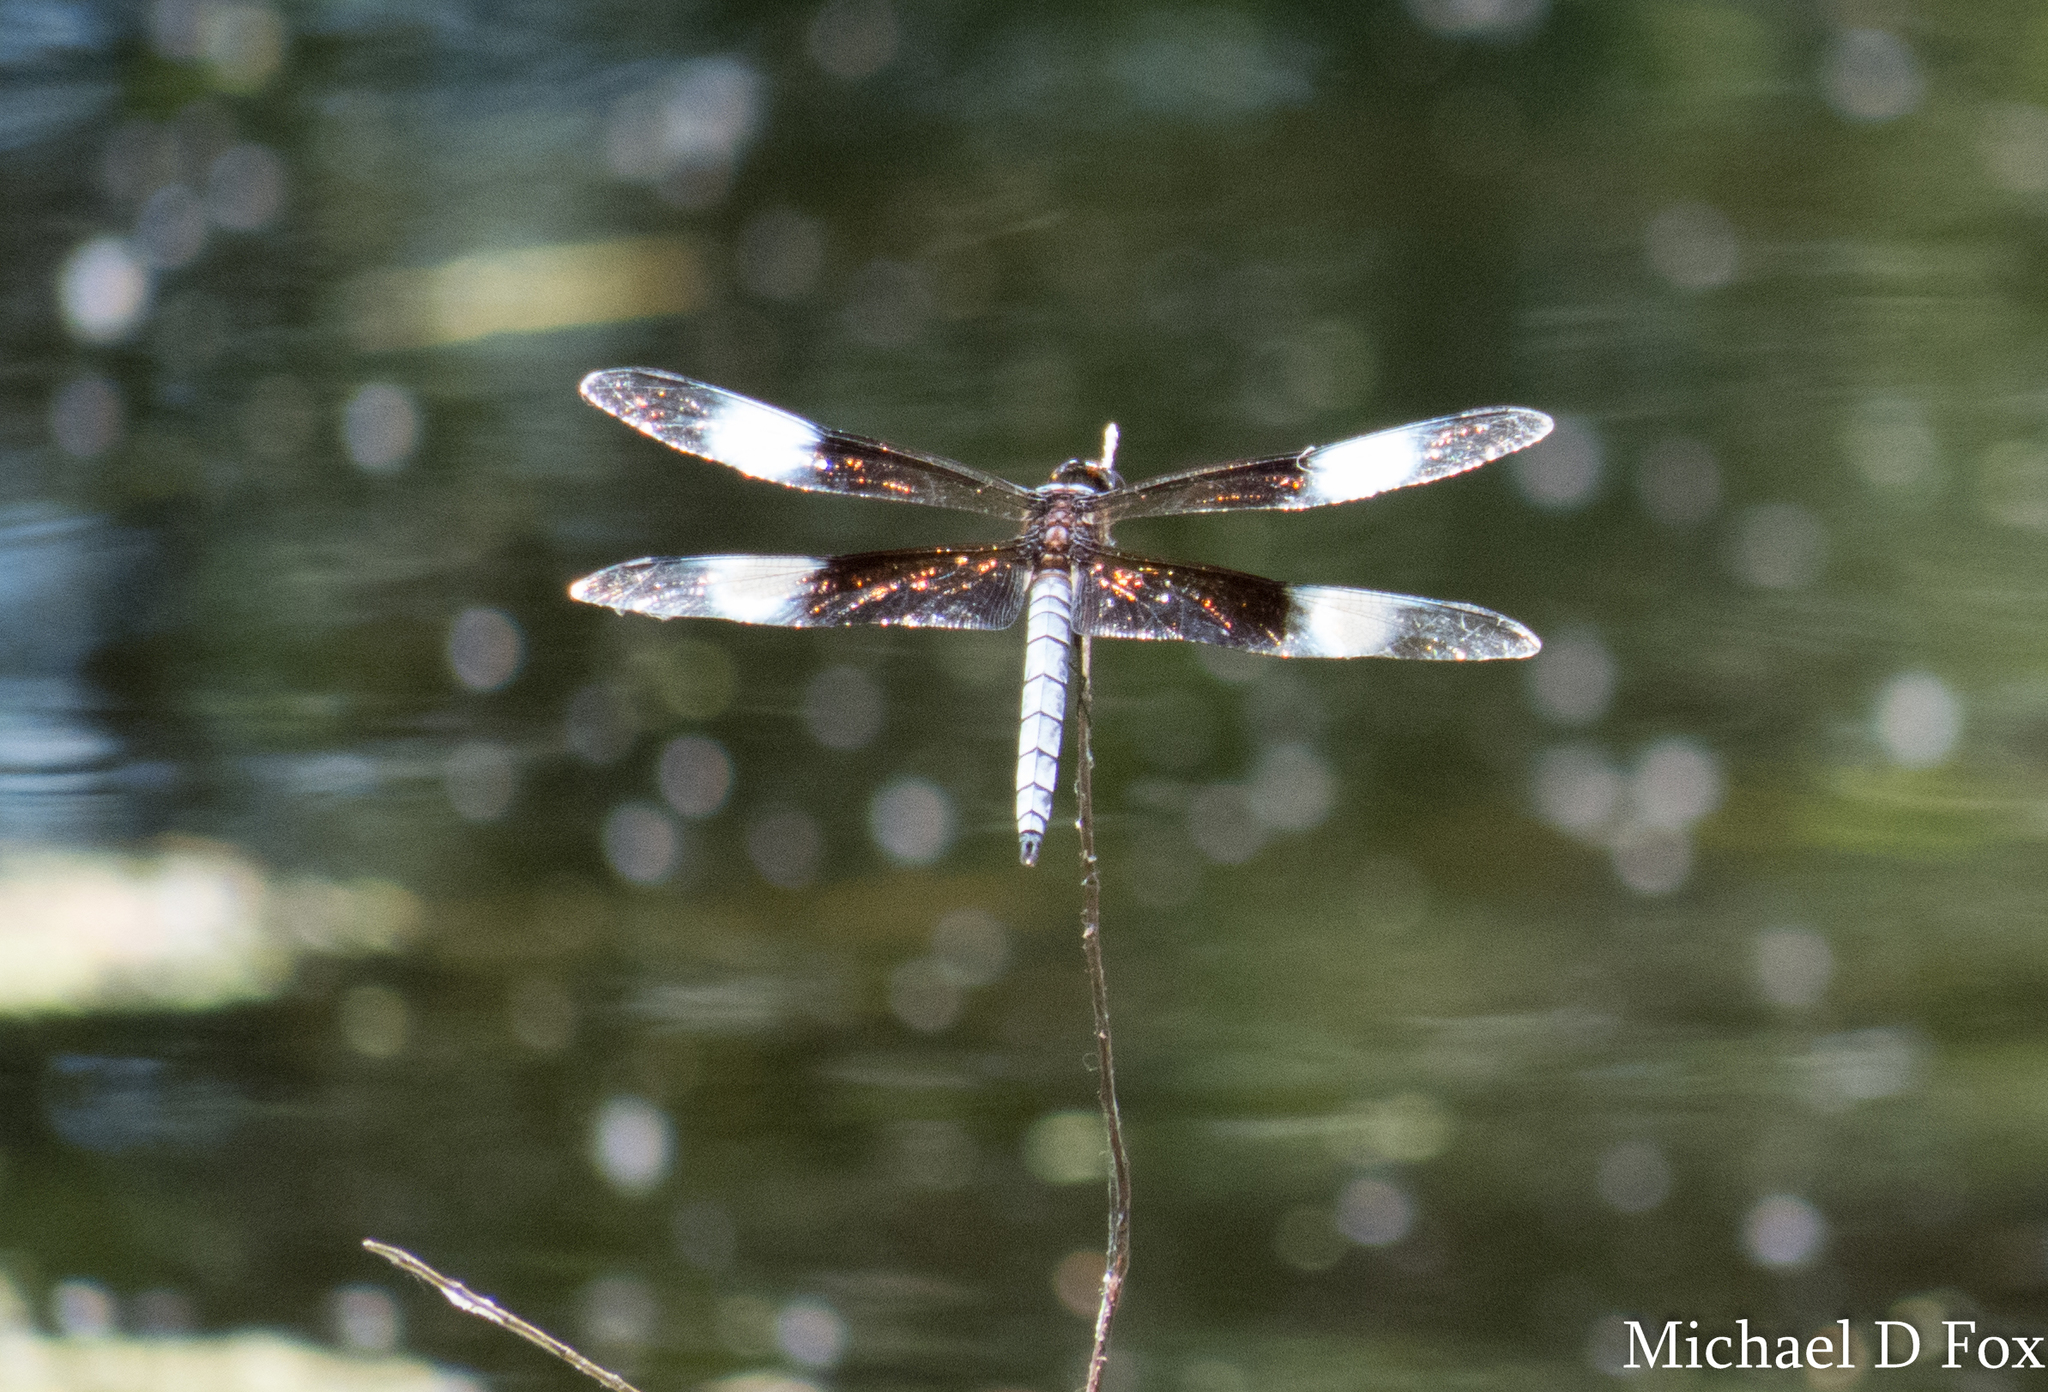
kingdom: Animalia
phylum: Arthropoda
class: Insecta
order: Odonata
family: Libellulidae
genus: Libellula
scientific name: Libellula luctuosa
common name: Widow skimmer
